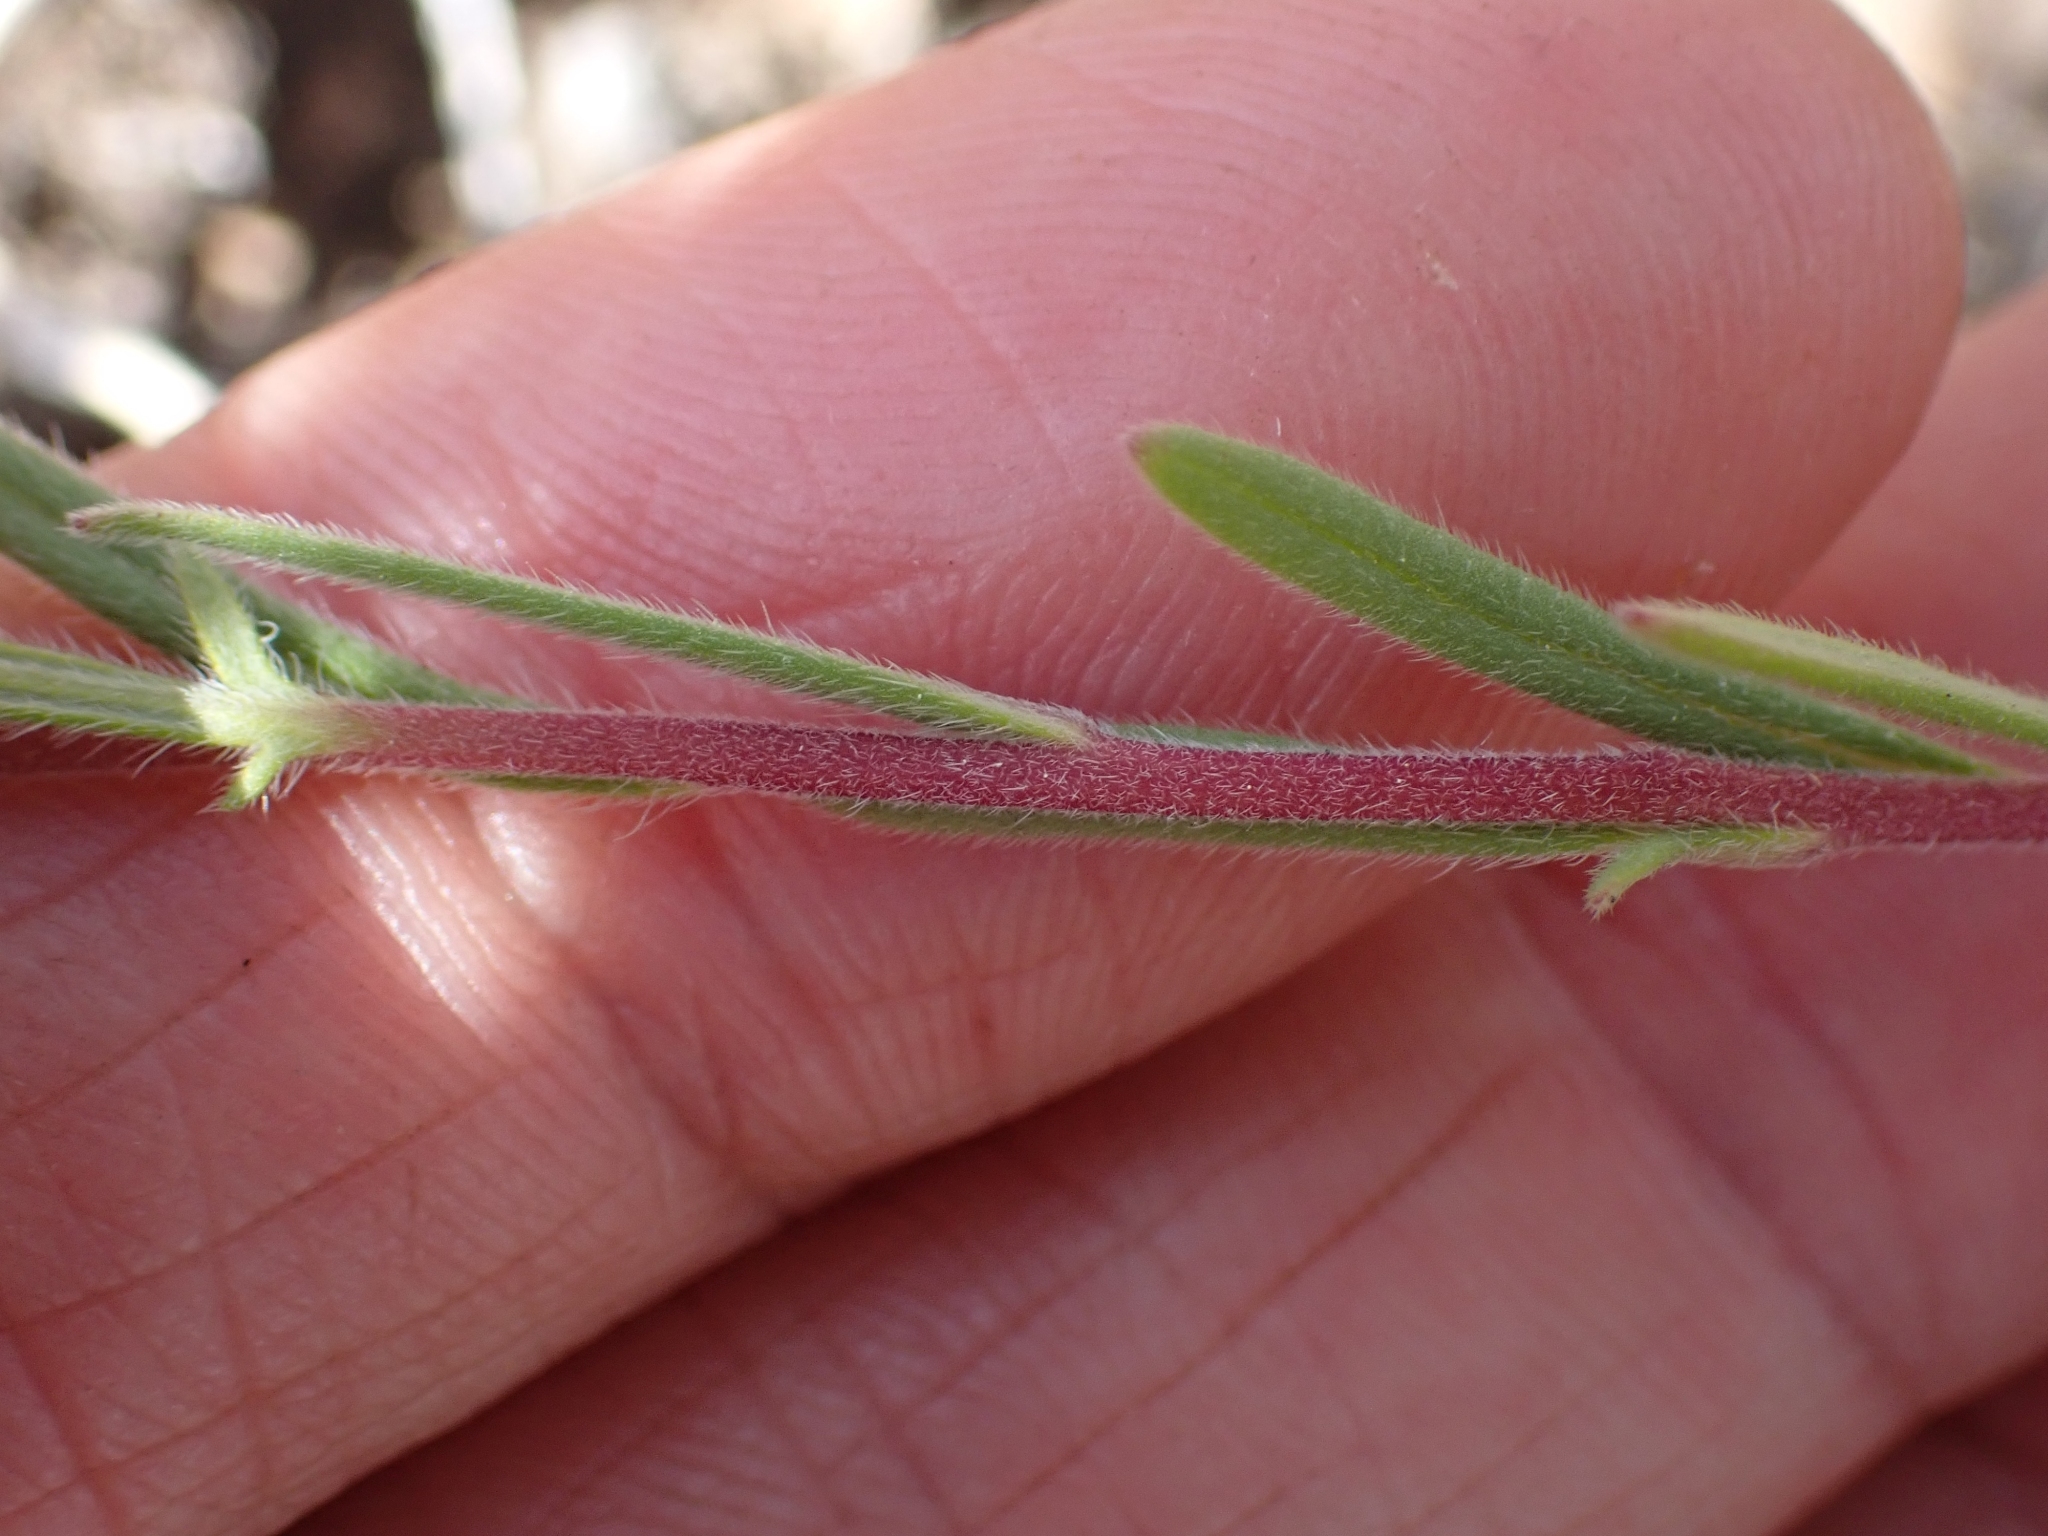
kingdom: Plantae
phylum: Tracheophyta
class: Magnoliopsida
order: Boraginales
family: Hydrophyllaceae
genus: Phacelia
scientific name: Phacelia linearis
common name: Linear-leaved phacelia
